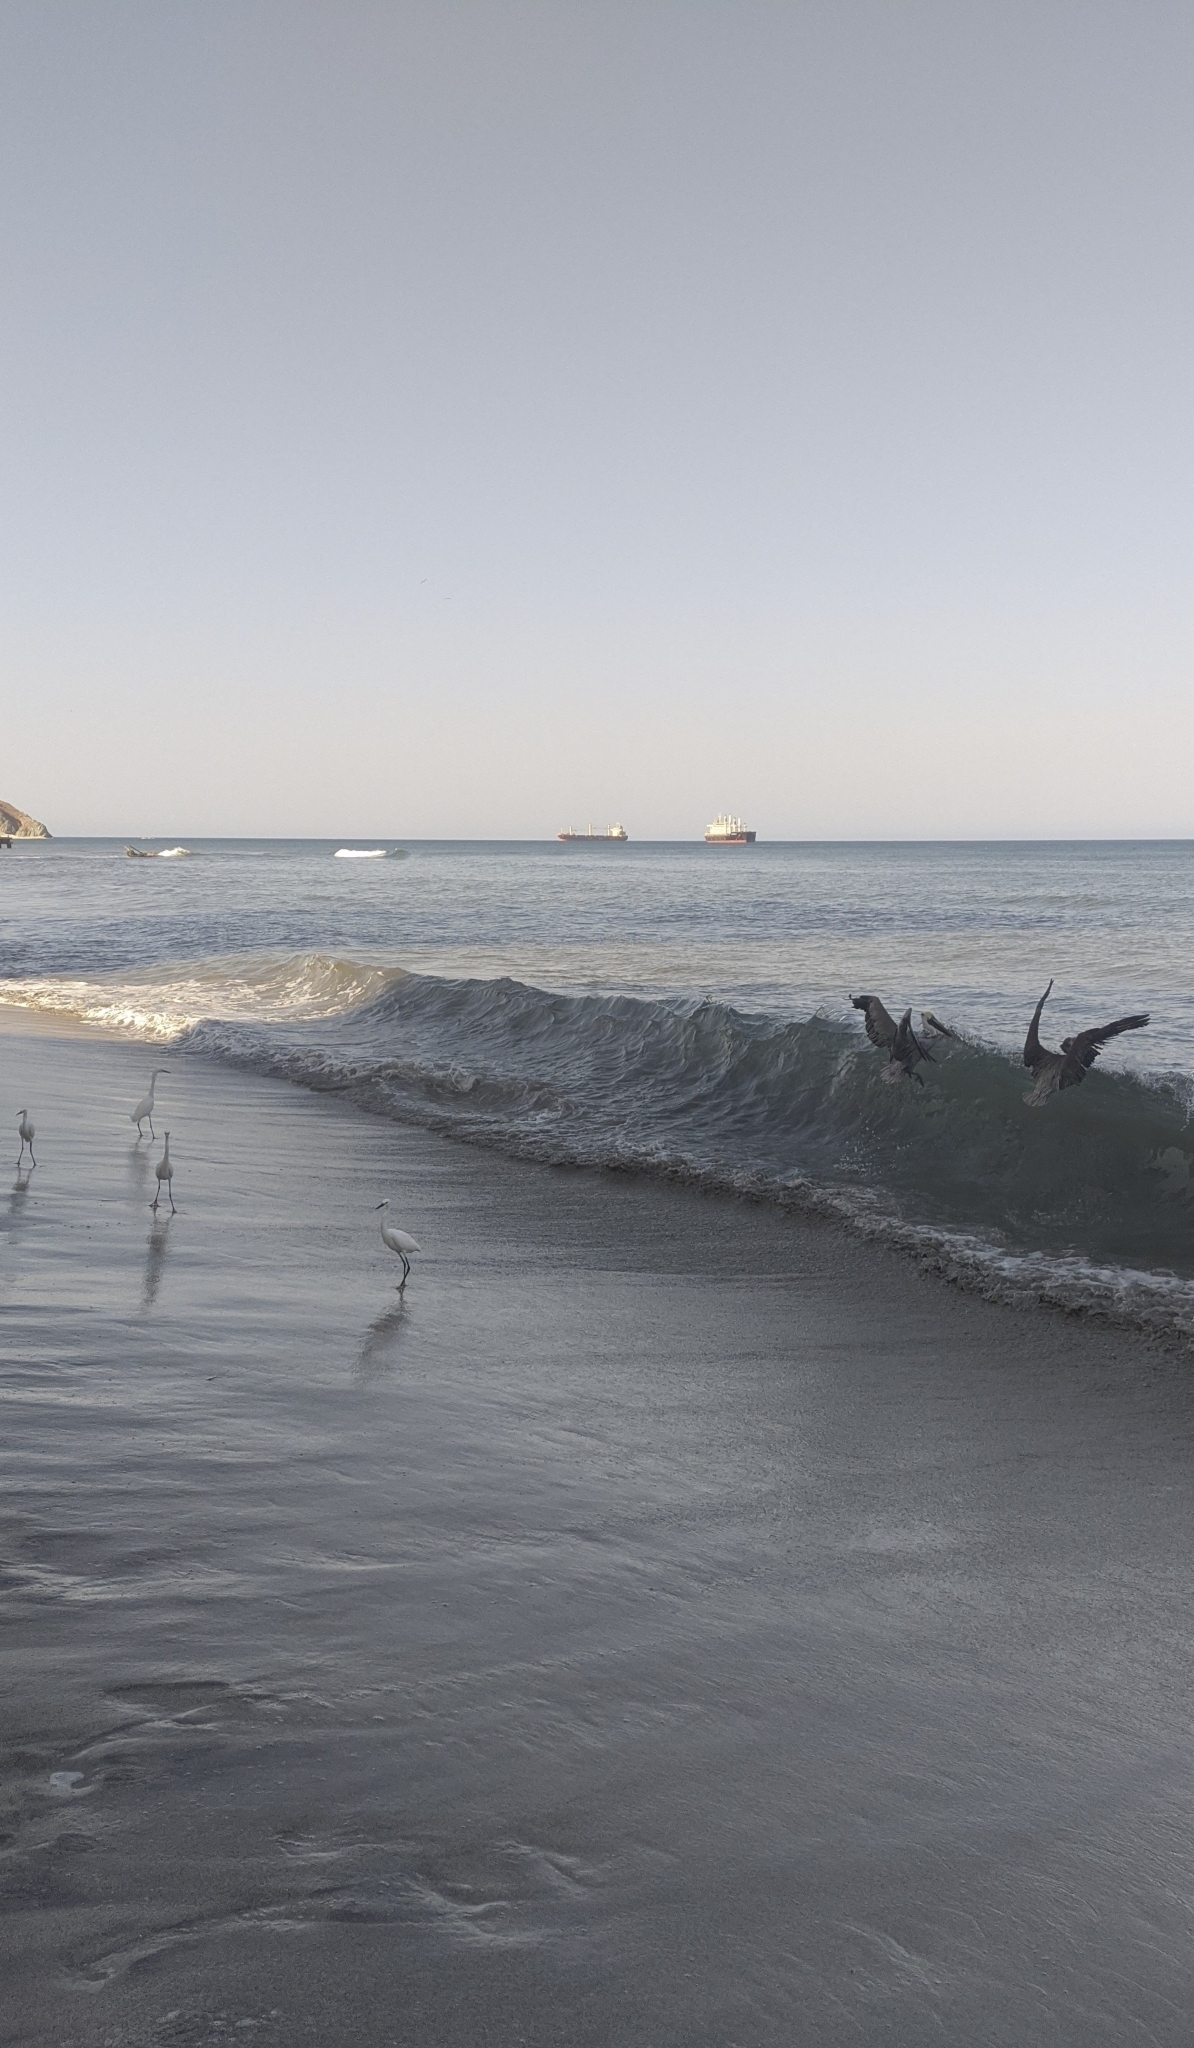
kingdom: Animalia
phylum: Chordata
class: Aves
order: Pelecaniformes
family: Pelecanidae
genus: Pelecanus
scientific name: Pelecanus occidentalis
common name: Brown pelican
